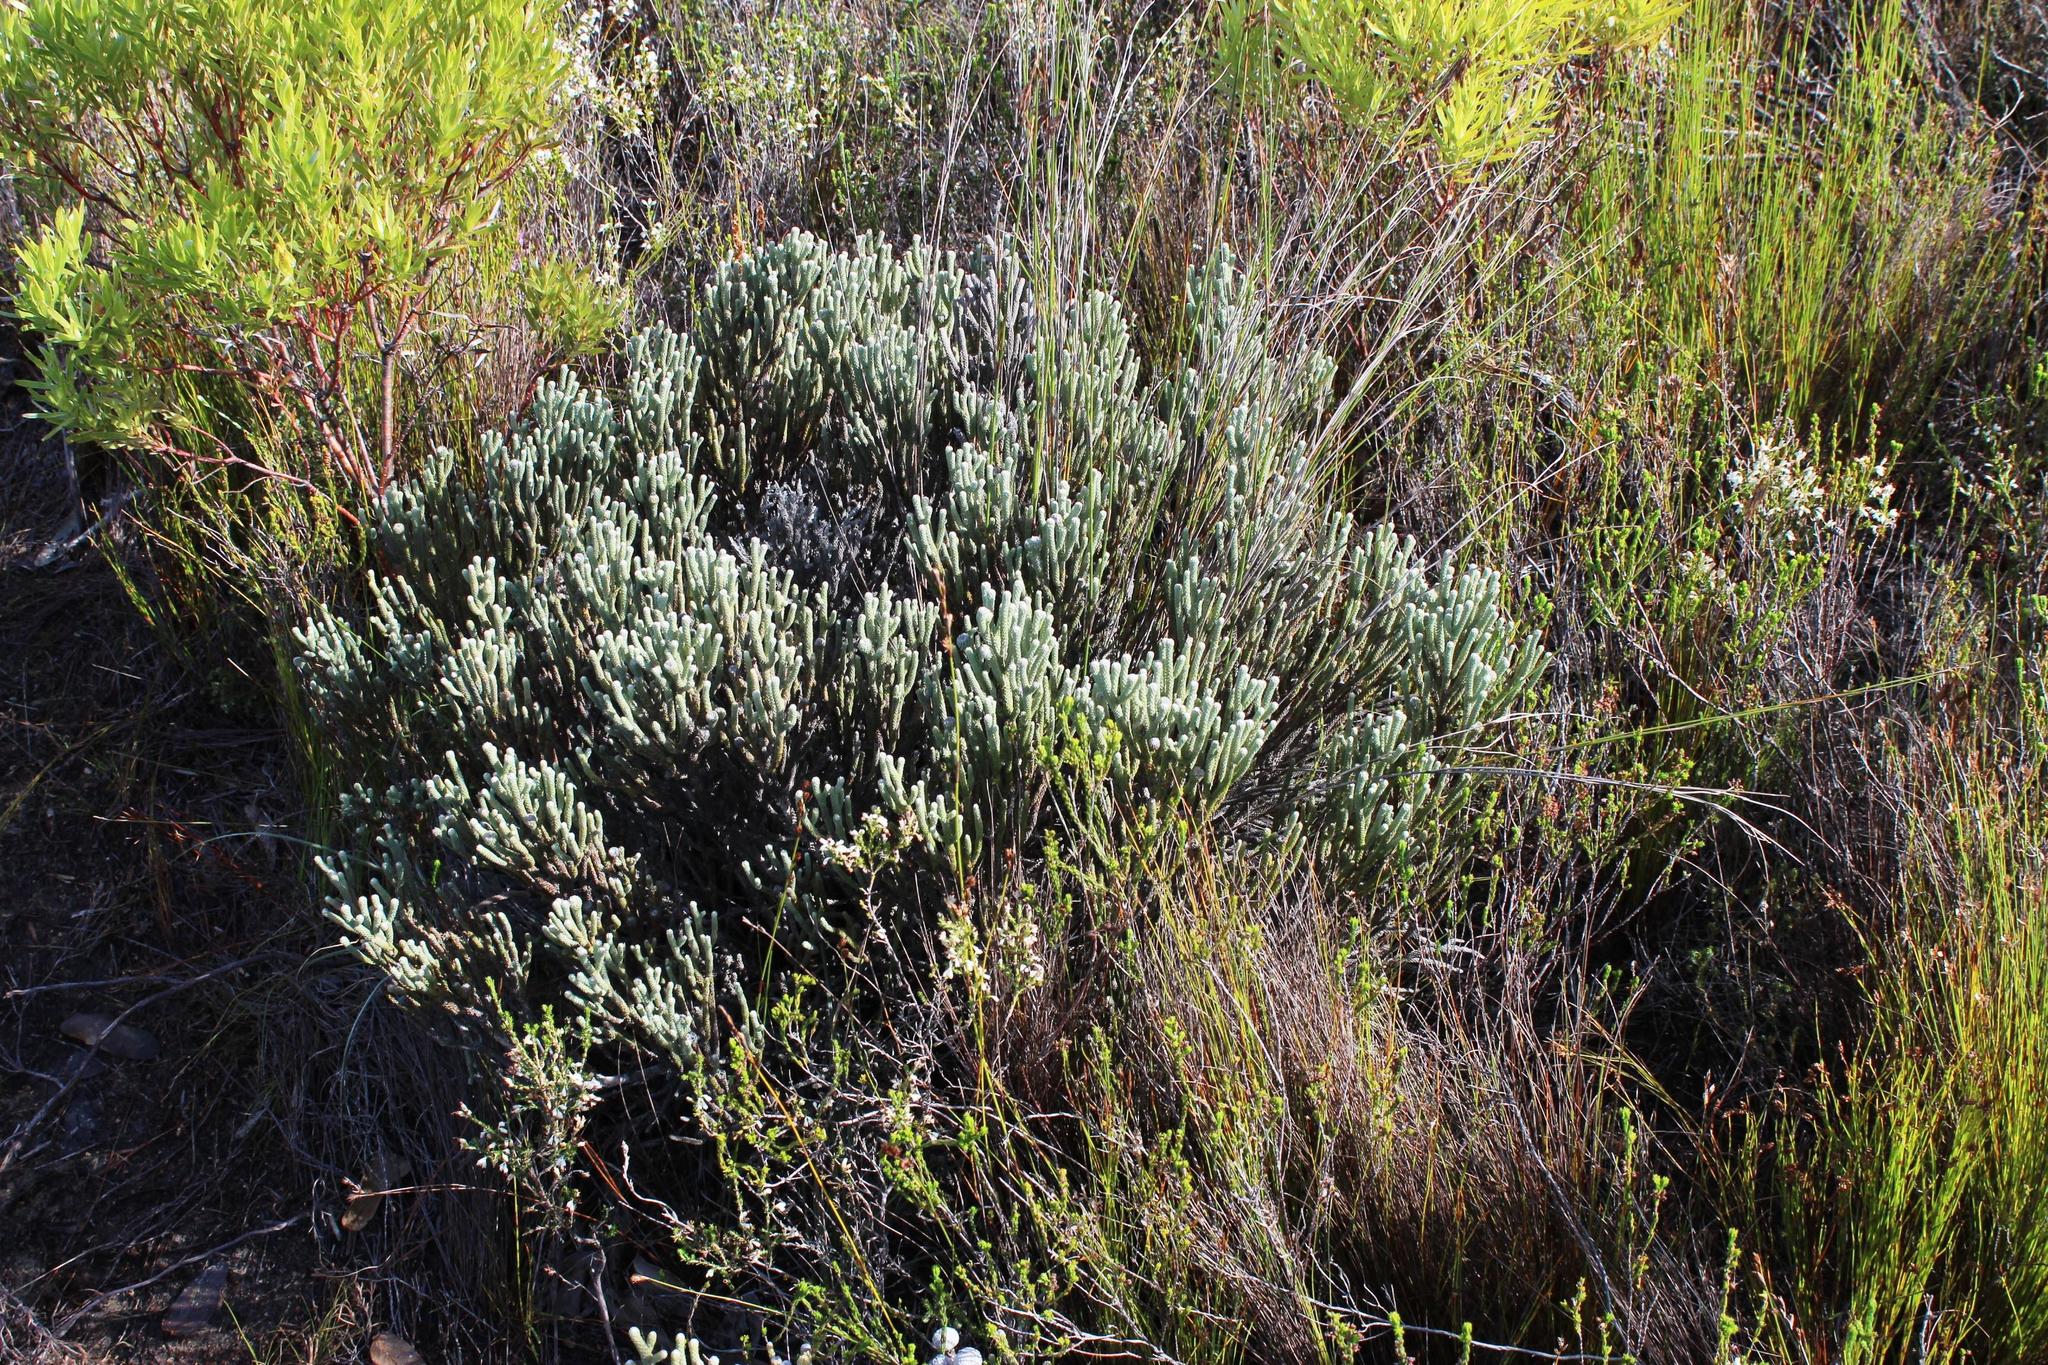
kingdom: Plantae
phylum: Tracheophyta
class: Magnoliopsida
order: Bruniales
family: Bruniaceae
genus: Brunia
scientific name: Brunia laevis
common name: Silver brunia
